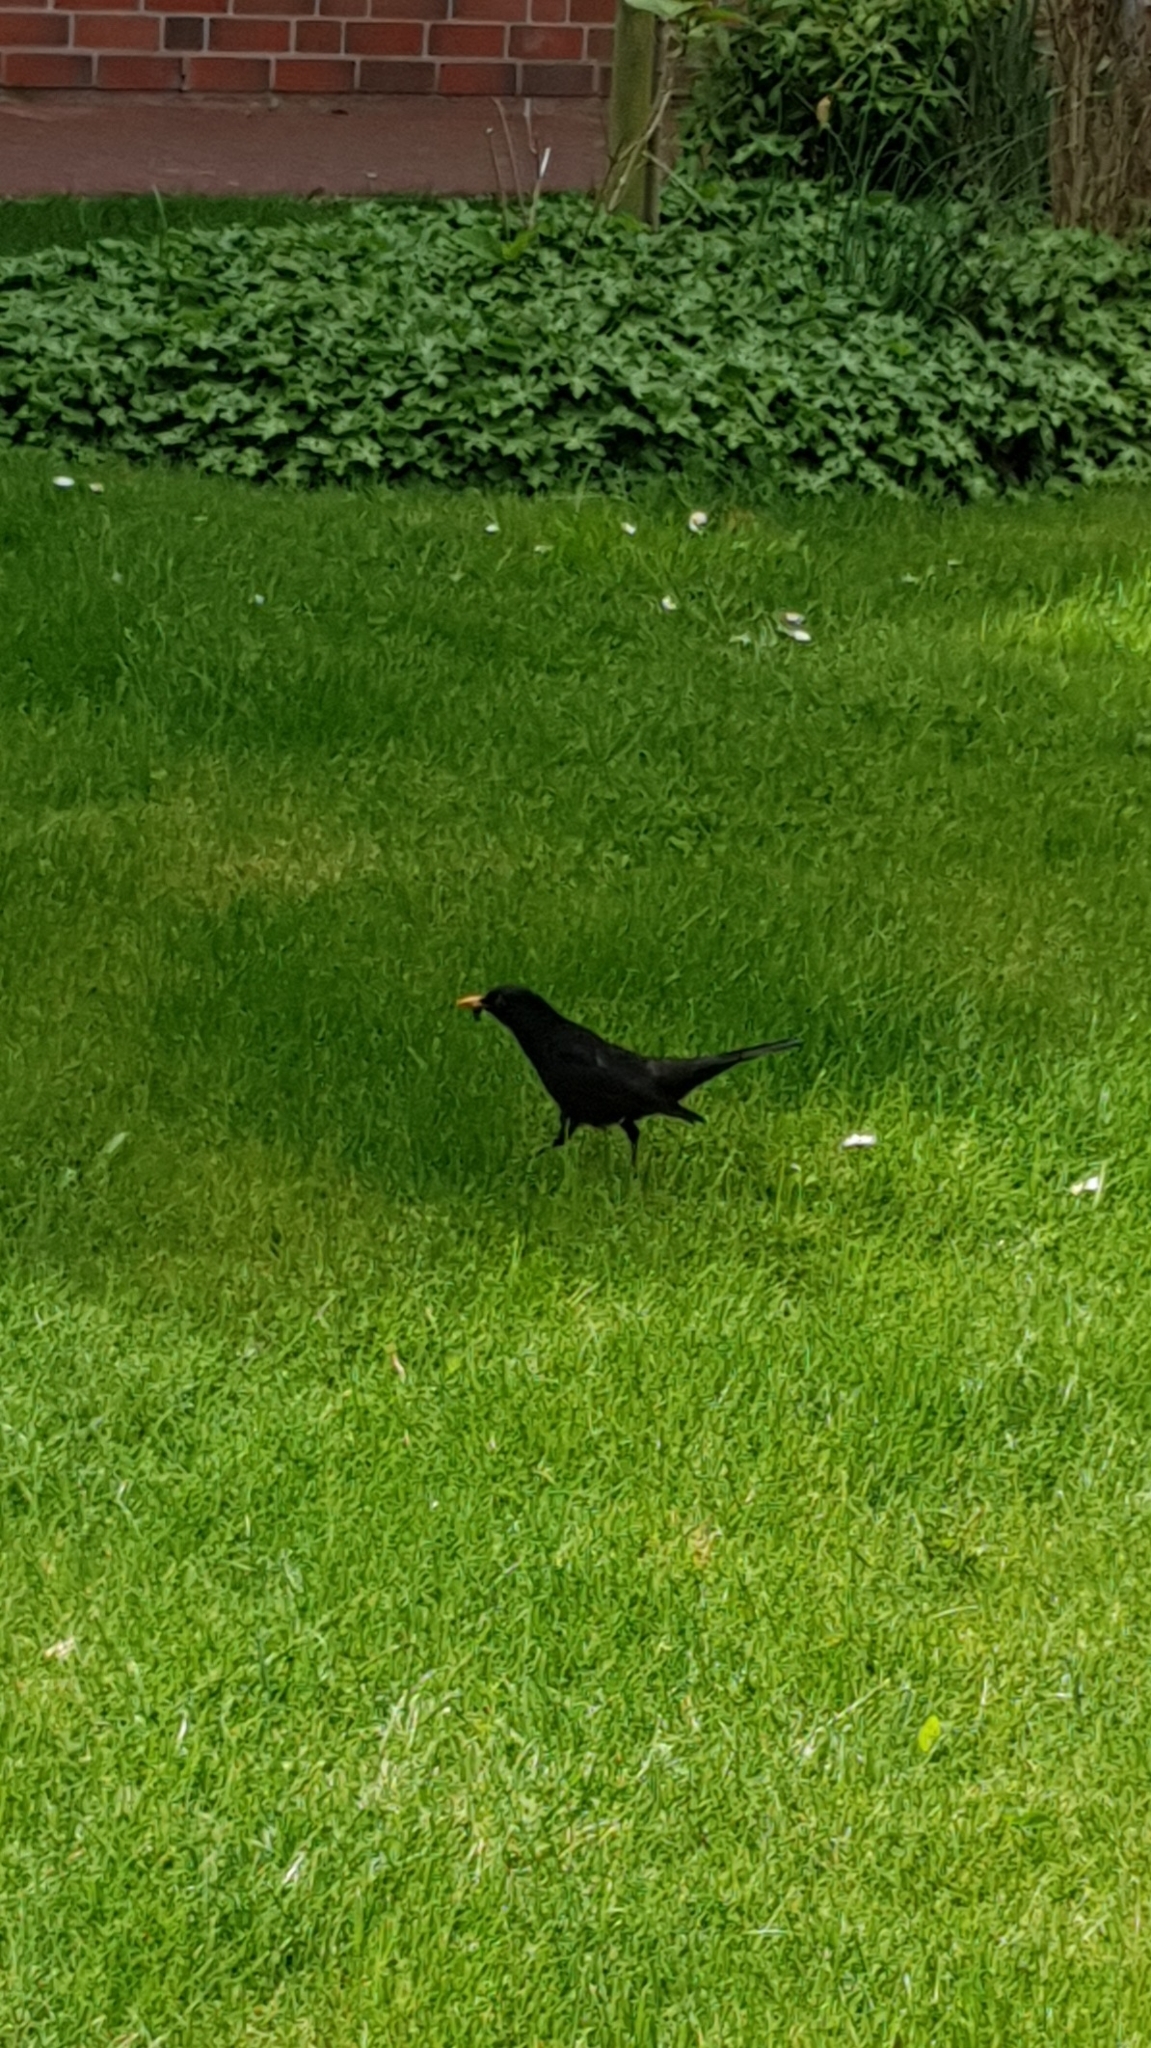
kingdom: Animalia
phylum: Chordata
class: Aves
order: Passeriformes
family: Turdidae
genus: Turdus
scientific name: Turdus merula
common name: Common blackbird
